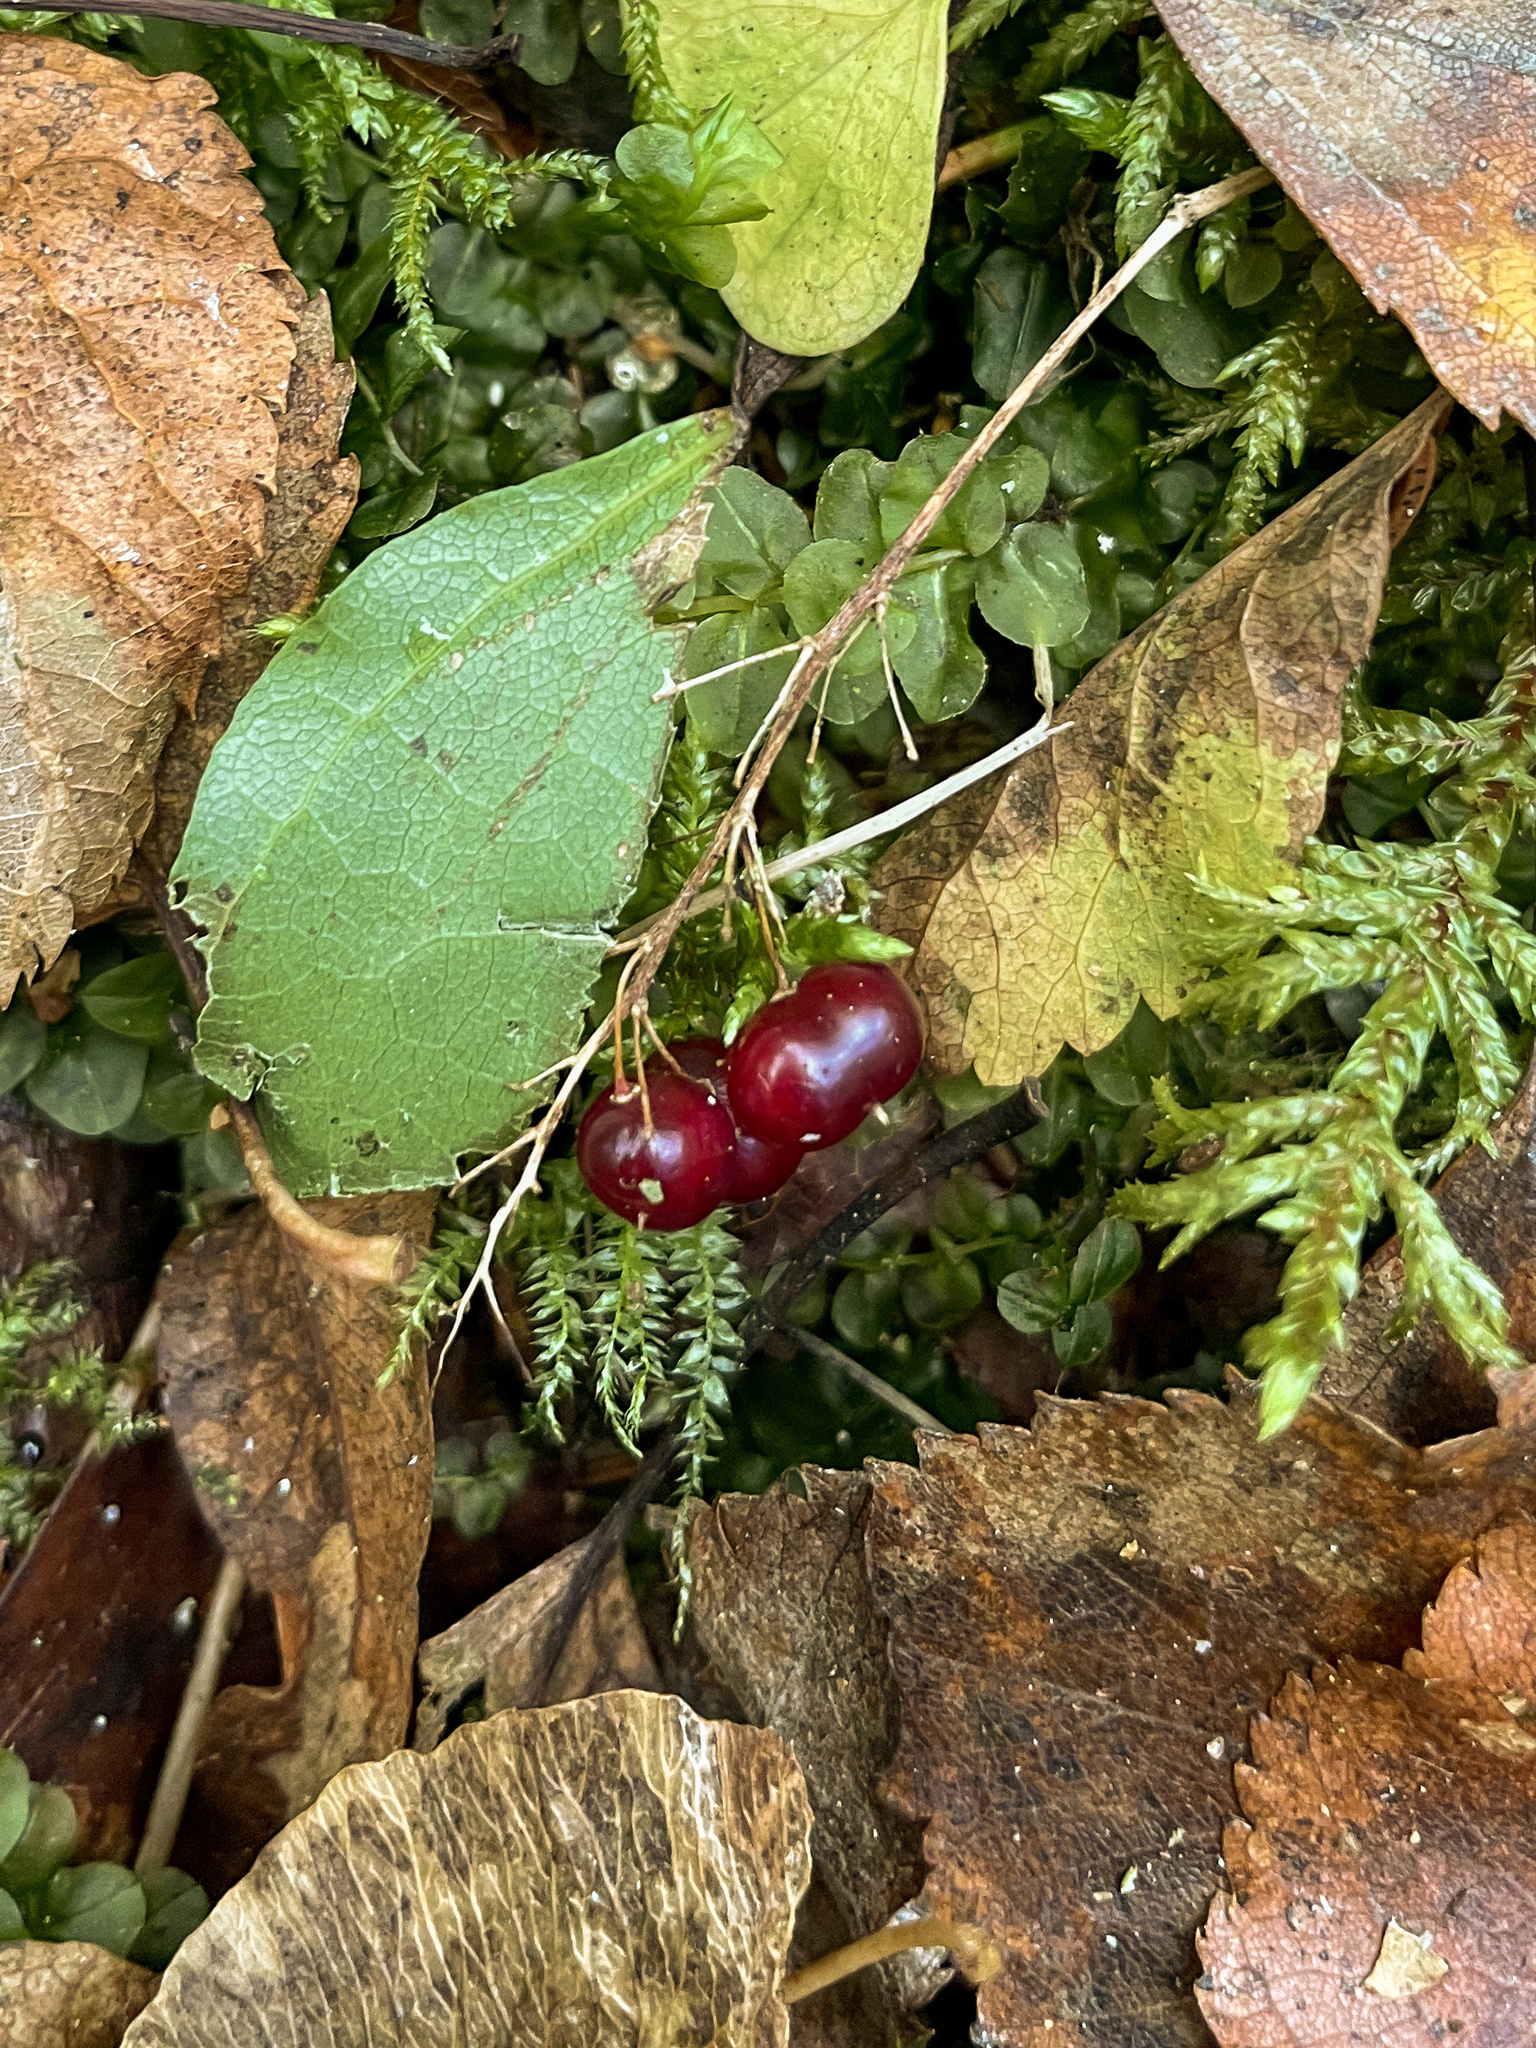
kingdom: Plantae
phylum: Tracheophyta
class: Liliopsida
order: Asparagales
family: Asparagaceae
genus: Maianthemum
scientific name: Maianthemum bifolium
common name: May lily
